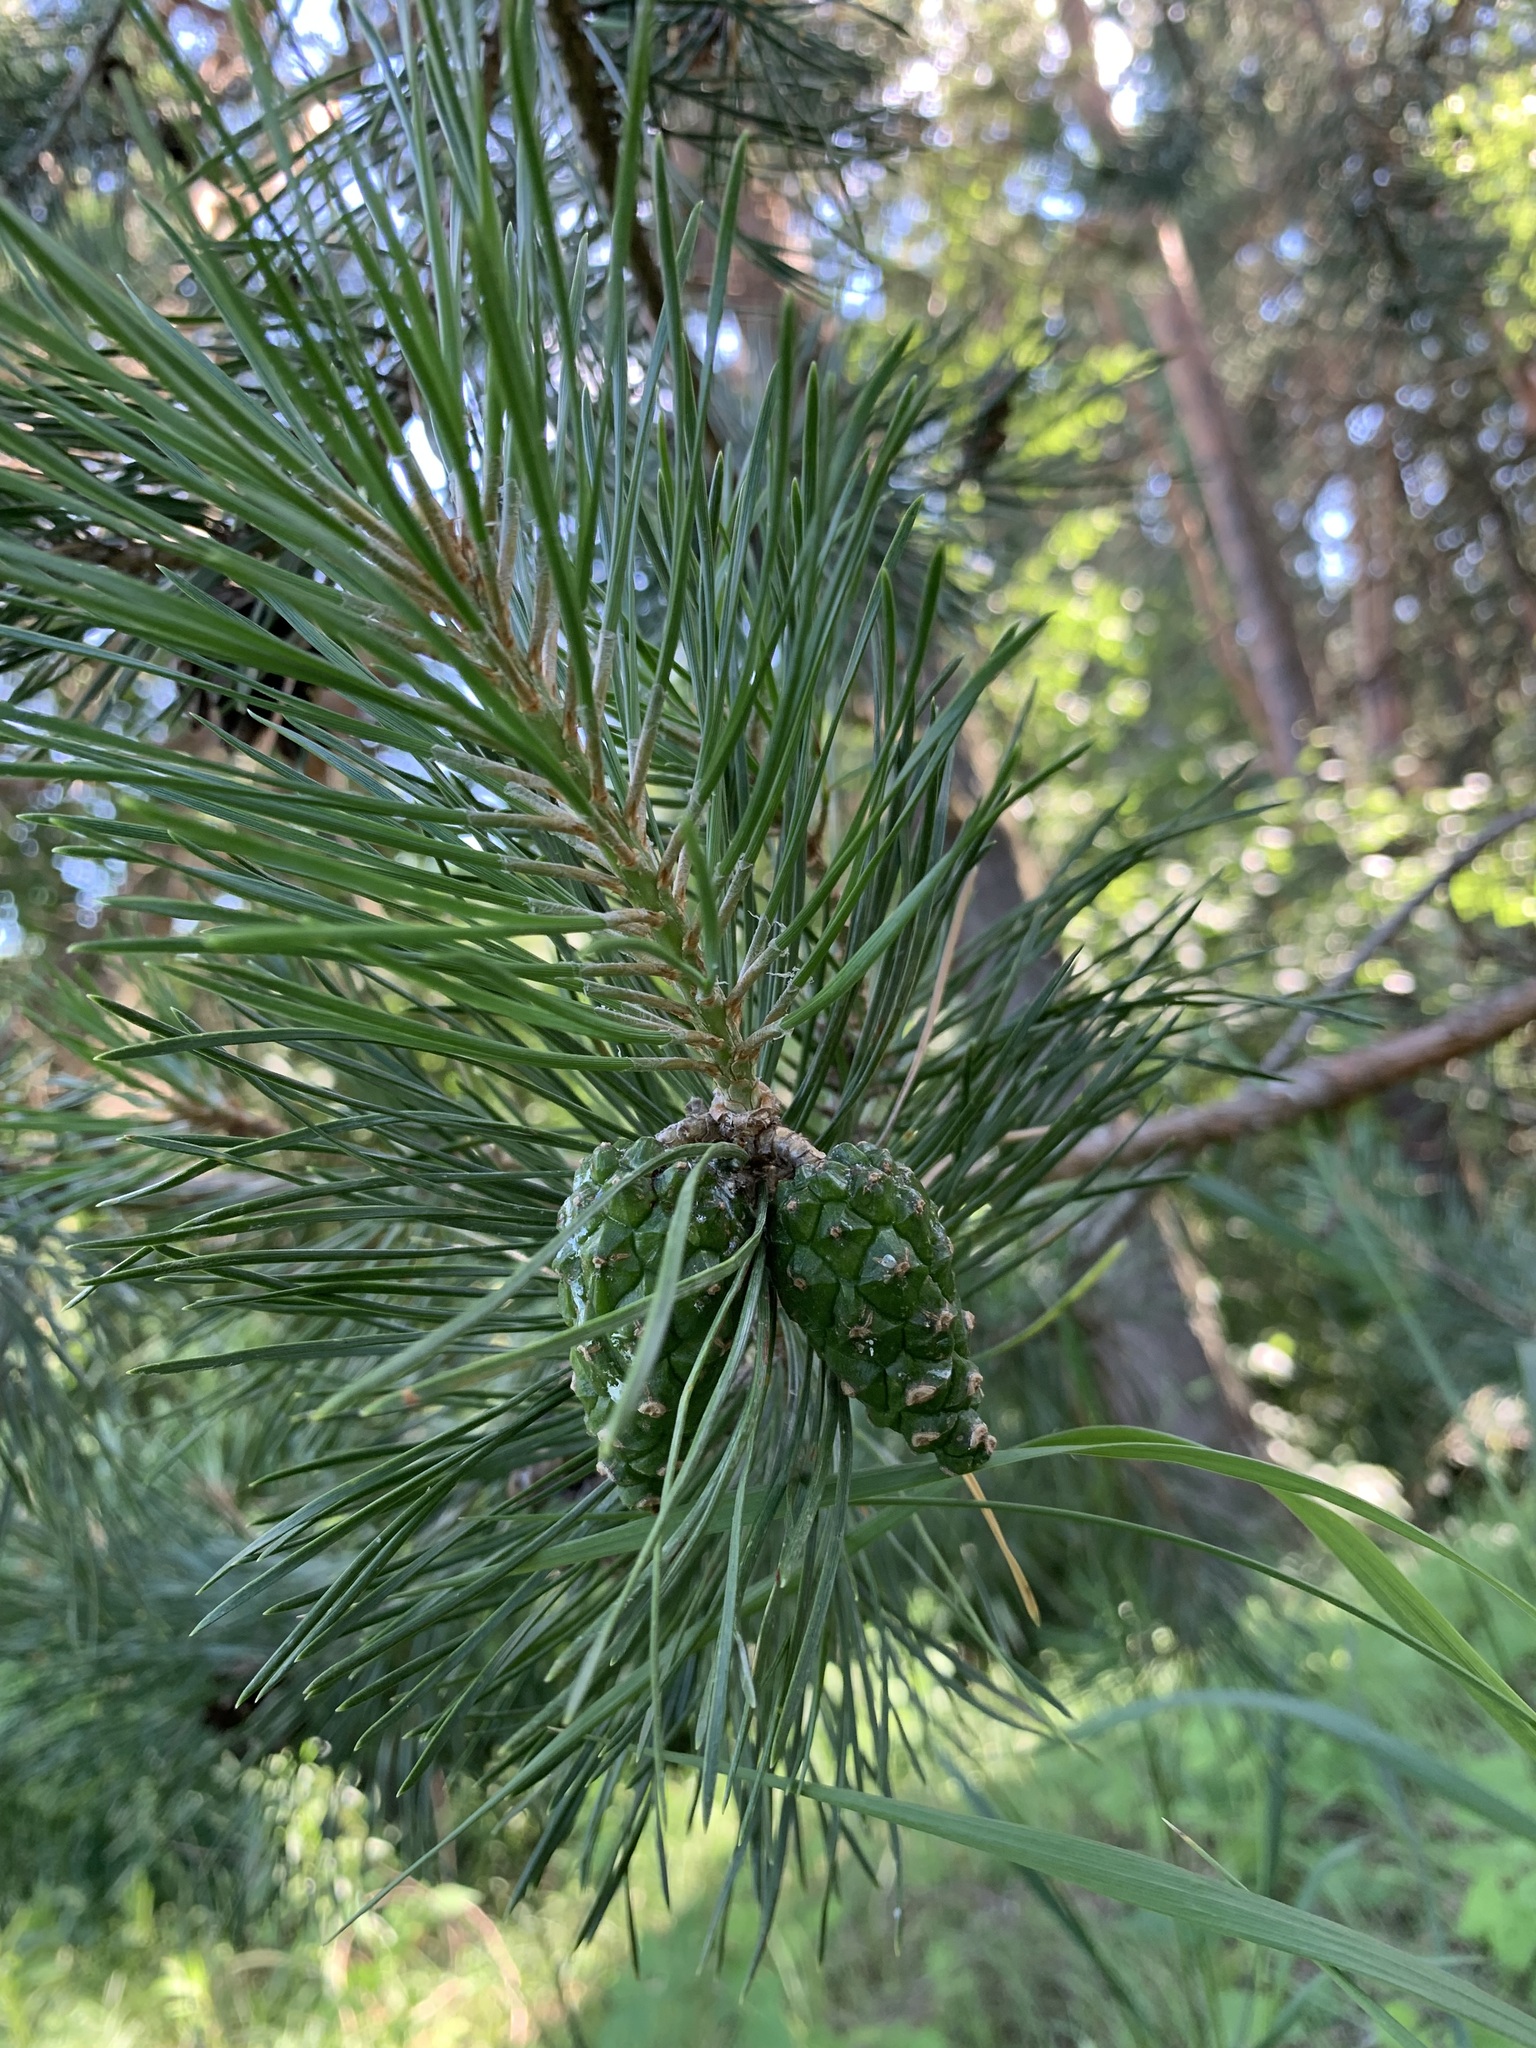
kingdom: Plantae
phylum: Tracheophyta
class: Pinopsida
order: Pinales
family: Pinaceae
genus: Pinus
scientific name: Pinus sylvestris
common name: Scots pine
